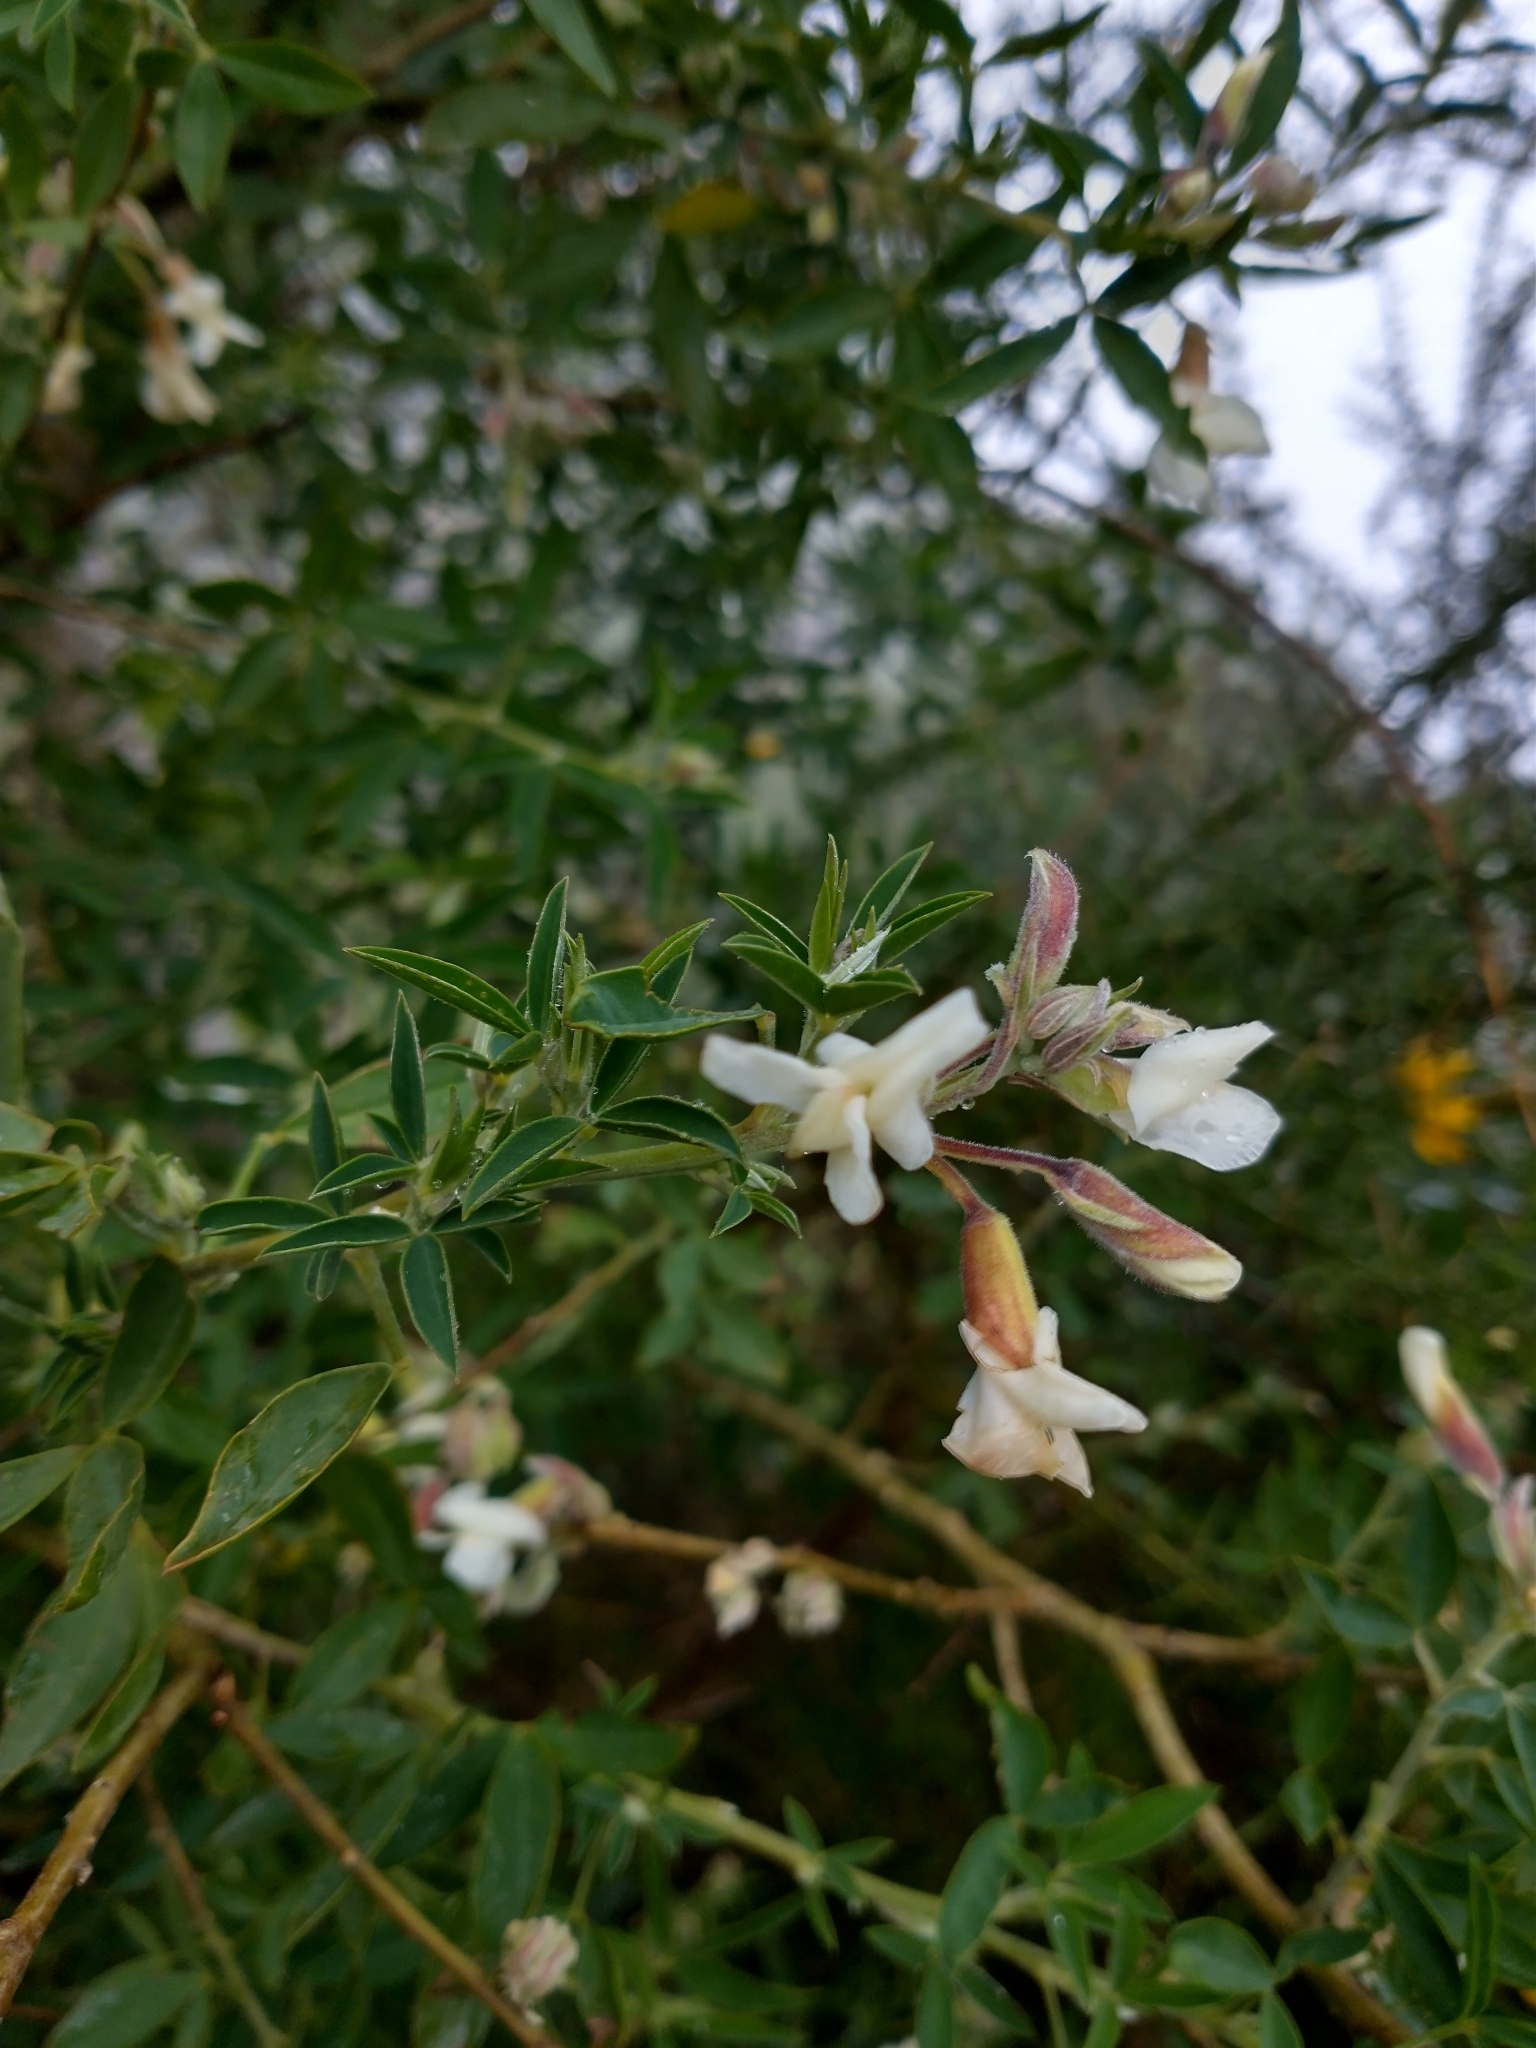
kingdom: Plantae
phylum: Tracheophyta
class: Magnoliopsida
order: Fabales
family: Fabaceae
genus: Chamaecytisus
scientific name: Chamaecytisus prolifer
